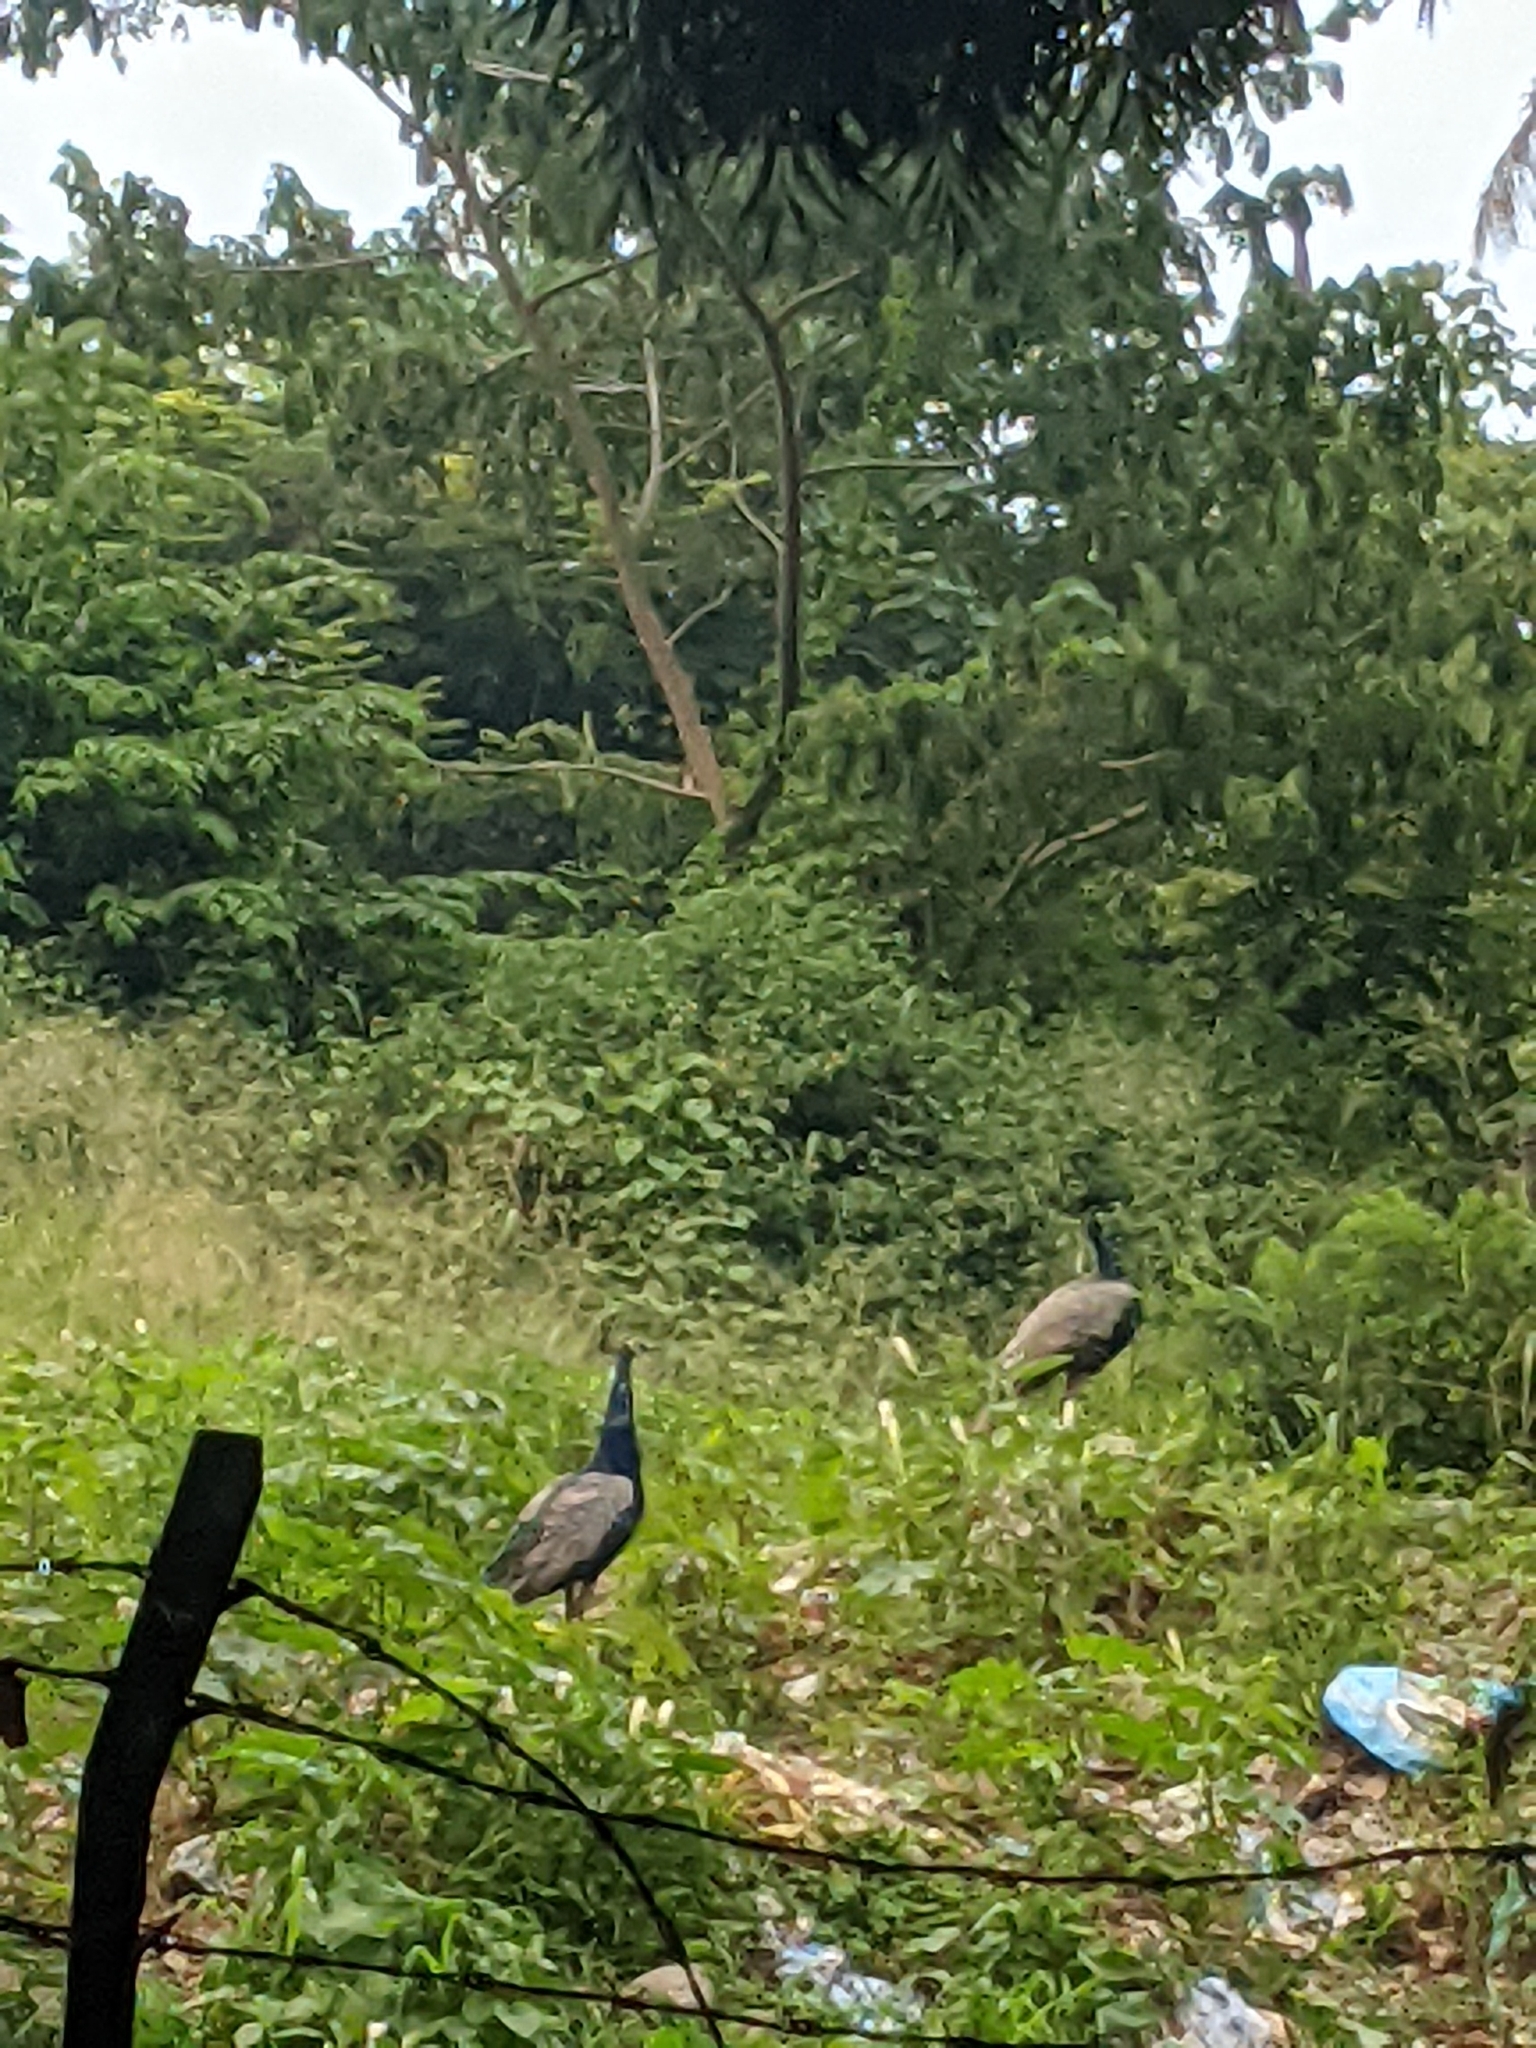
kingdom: Animalia
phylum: Chordata
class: Aves
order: Galliformes
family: Phasianidae
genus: Pavo
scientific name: Pavo cristatus
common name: Indian peafowl
